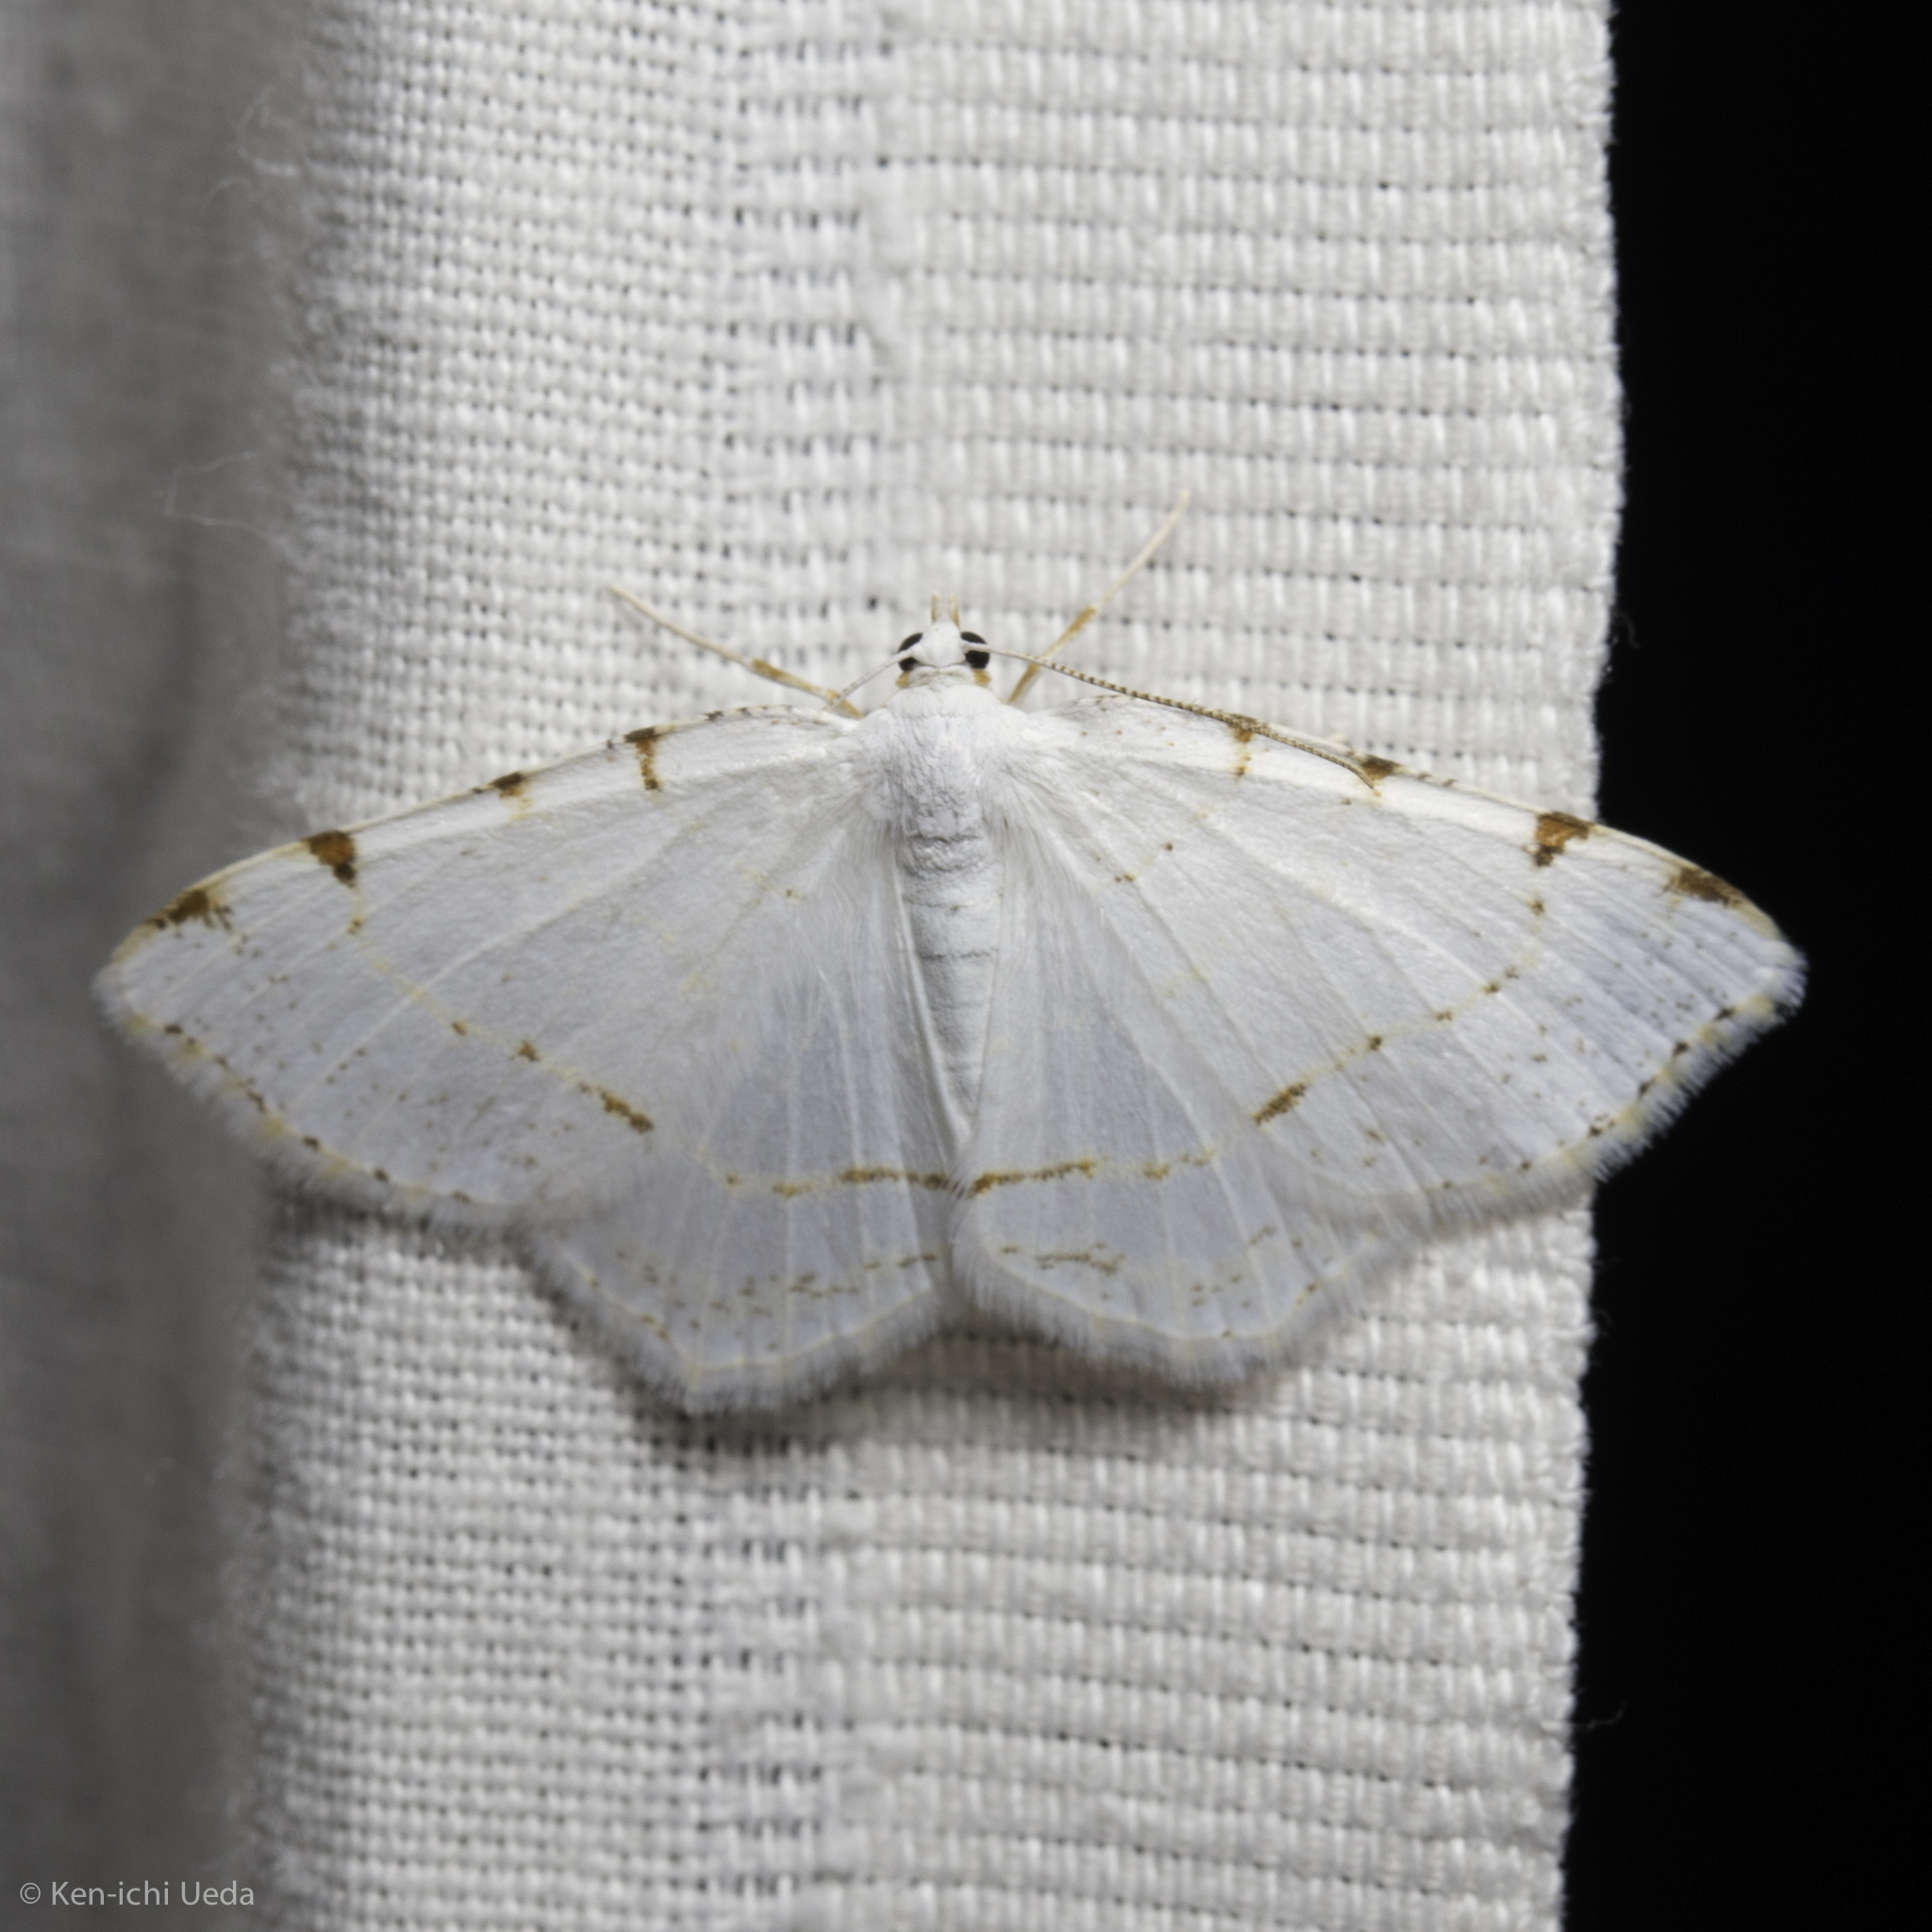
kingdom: Animalia
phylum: Arthropoda
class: Insecta
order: Lepidoptera
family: Geometridae
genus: Macaria
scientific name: Macaria pustularia
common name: Lesser maple spanworm moth
